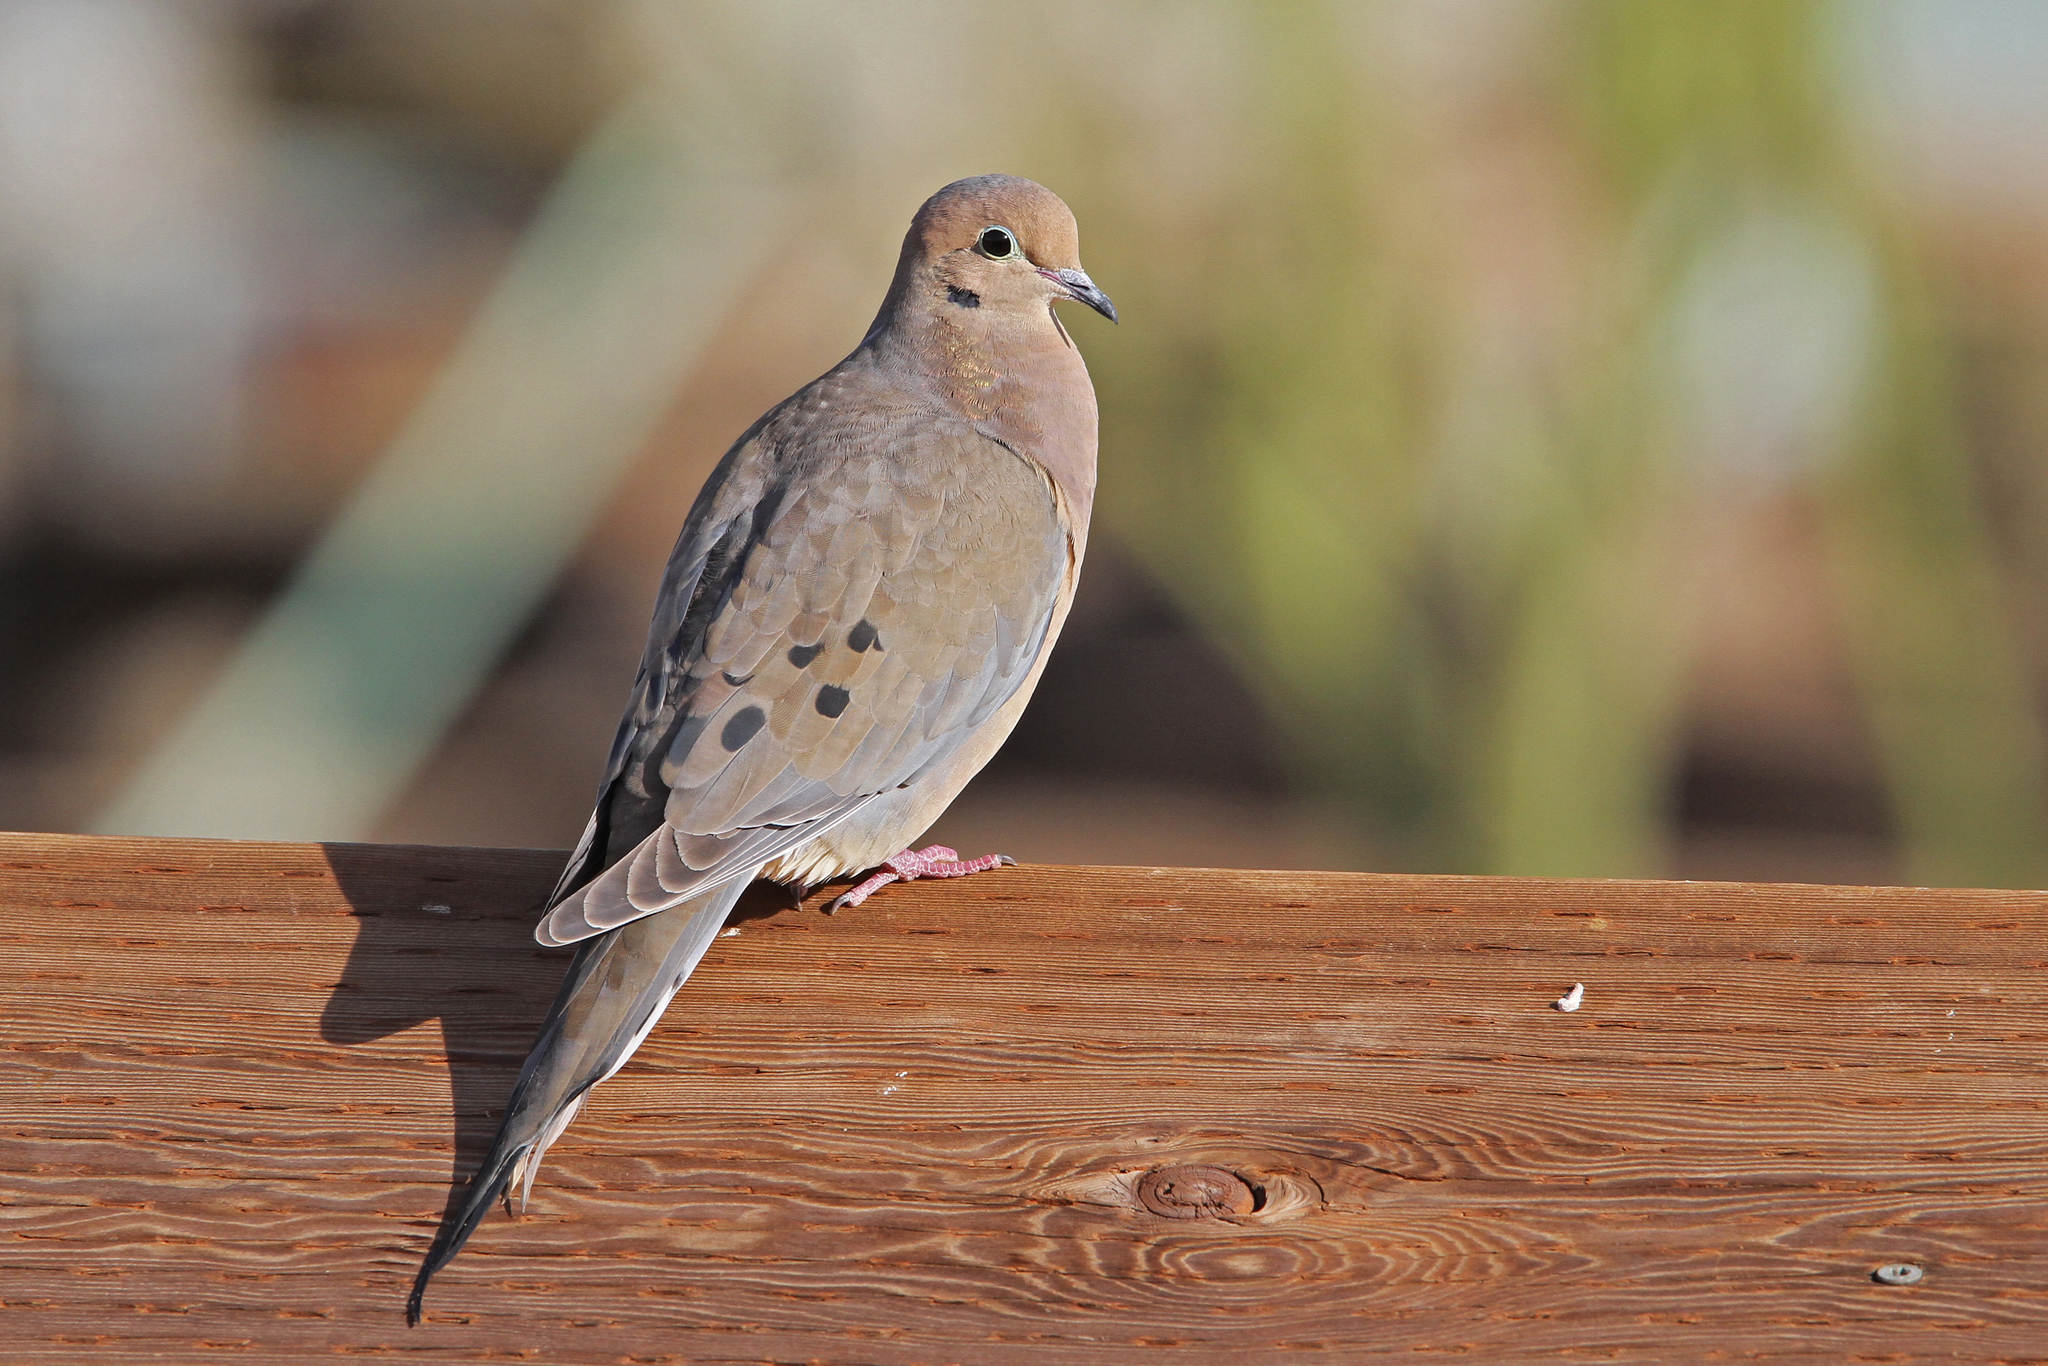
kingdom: Animalia
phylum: Chordata
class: Aves
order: Columbiformes
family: Columbidae
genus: Zenaida
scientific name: Zenaida macroura
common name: Mourning dove
